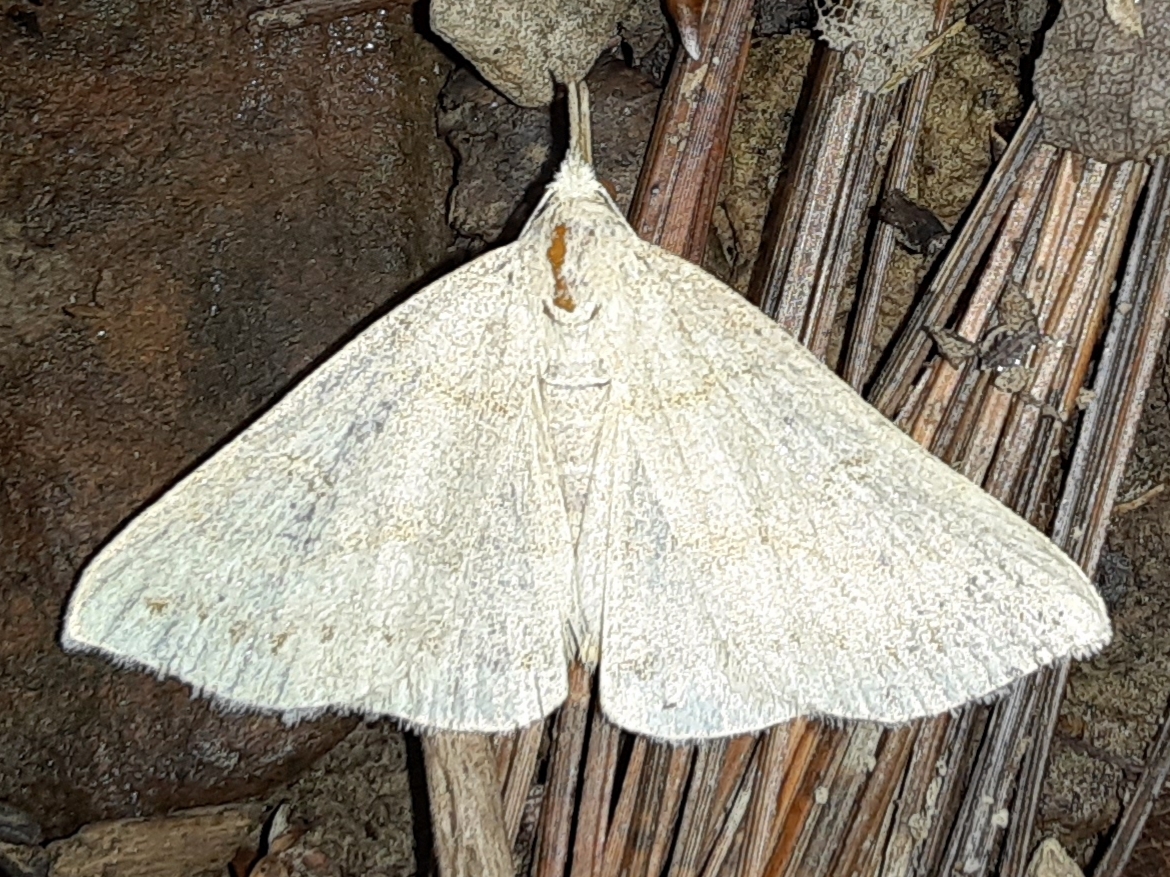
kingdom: Animalia
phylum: Arthropoda
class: Insecta
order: Lepidoptera
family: Erebidae
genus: Macrochilo
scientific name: Macrochilo morbidalis
